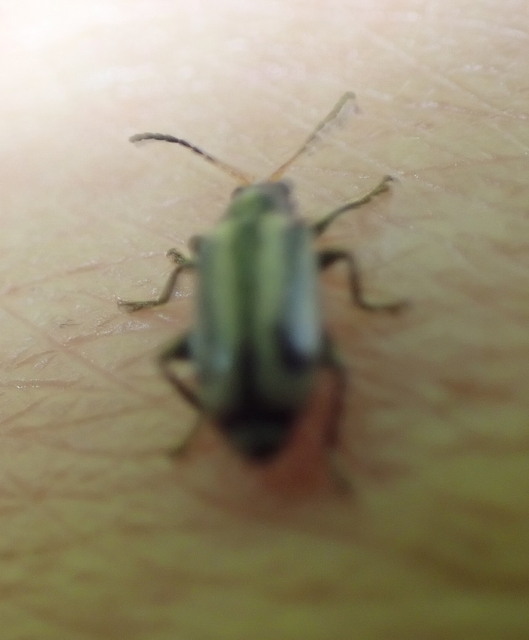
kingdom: Animalia
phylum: Arthropoda
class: Insecta
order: Coleoptera
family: Chrysomelidae
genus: Agasicles
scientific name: Agasicles hygrophila
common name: Alligatorweed flea beetle
